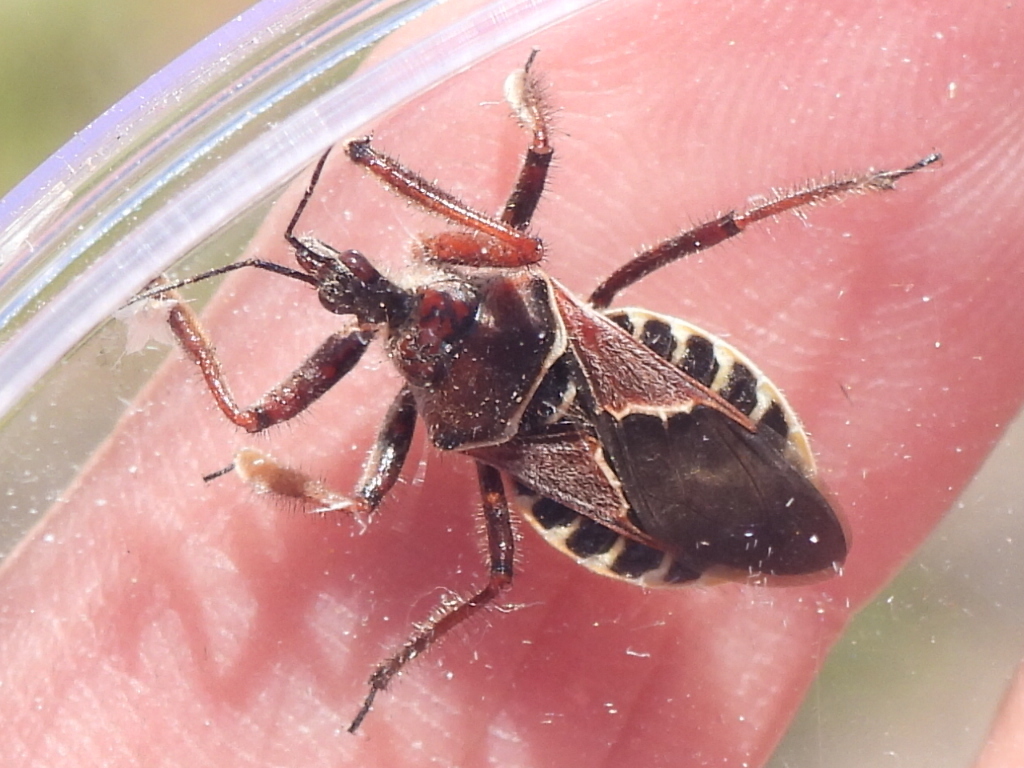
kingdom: Animalia
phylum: Arthropoda
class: Insecta
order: Hemiptera
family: Reduviidae
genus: Apiomerus
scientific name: Apiomerus spissipes
